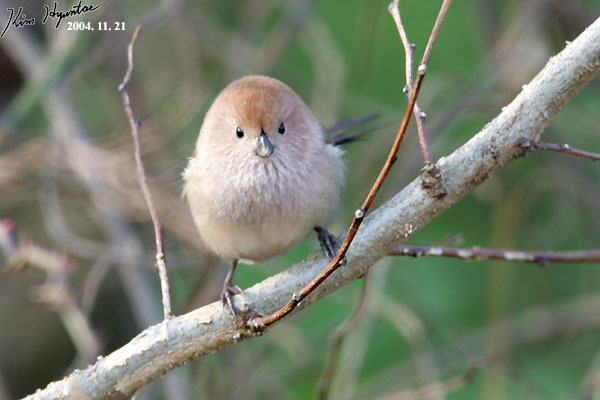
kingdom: Animalia
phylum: Chordata
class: Aves
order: Passeriformes
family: Sylviidae
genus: Sinosuthora
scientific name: Sinosuthora webbiana
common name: Vinous-throated parrotbill
